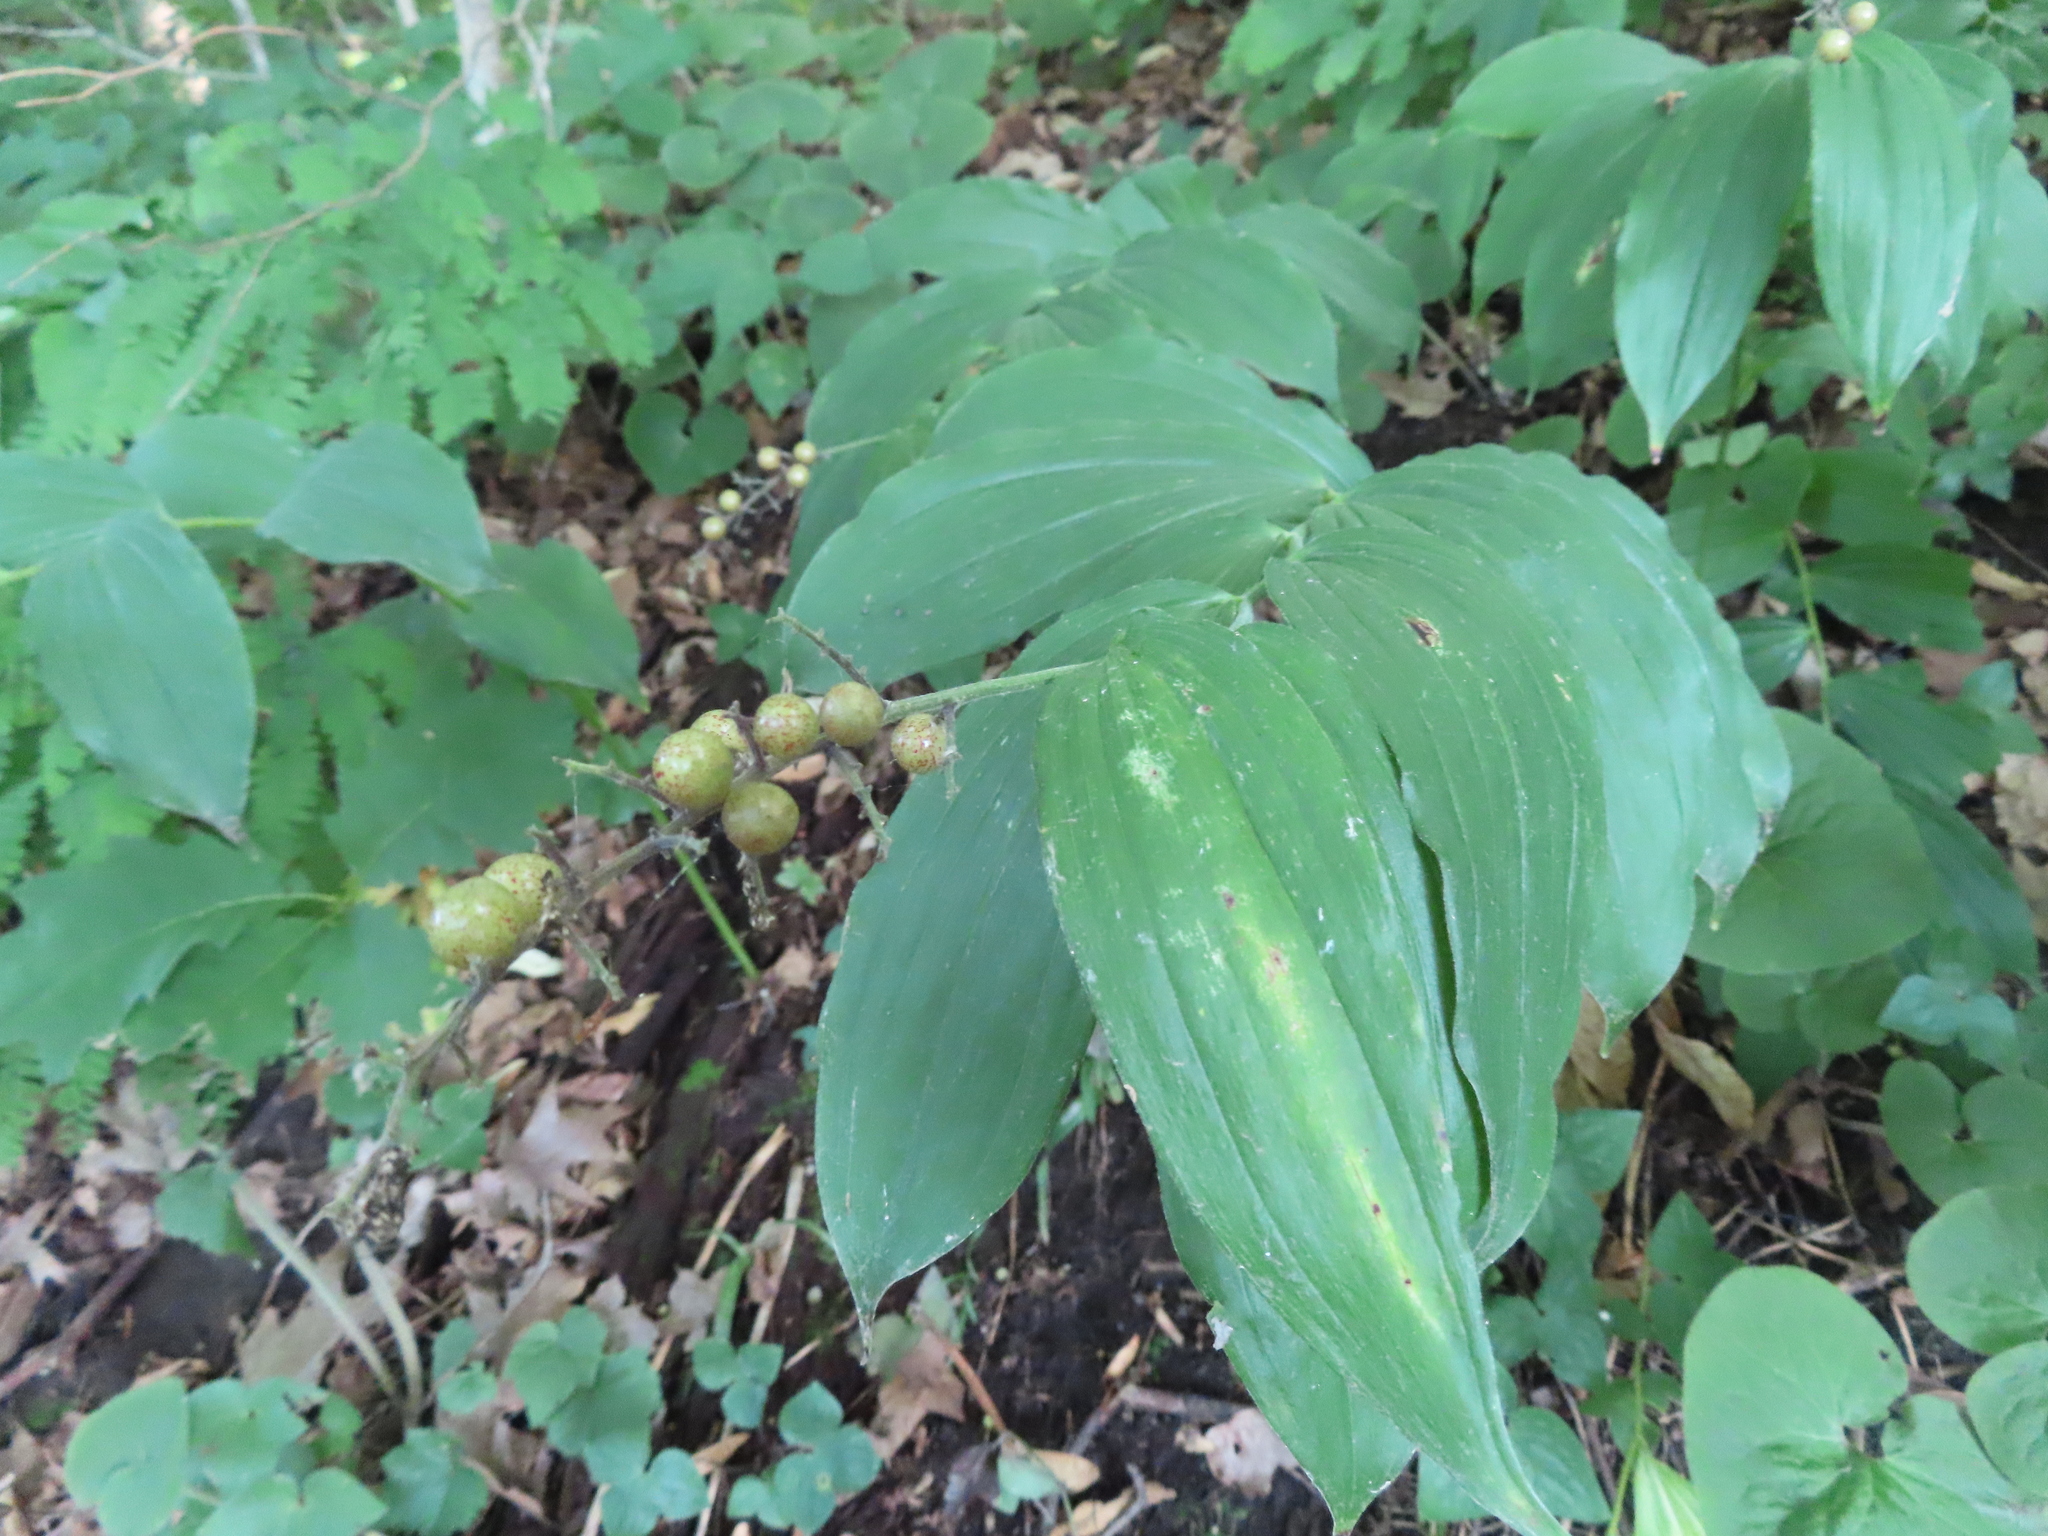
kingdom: Plantae
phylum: Tracheophyta
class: Liliopsida
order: Asparagales
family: Asparagaceae
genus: Maianthemum
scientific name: Maianthemum racemosum
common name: False spikenard
